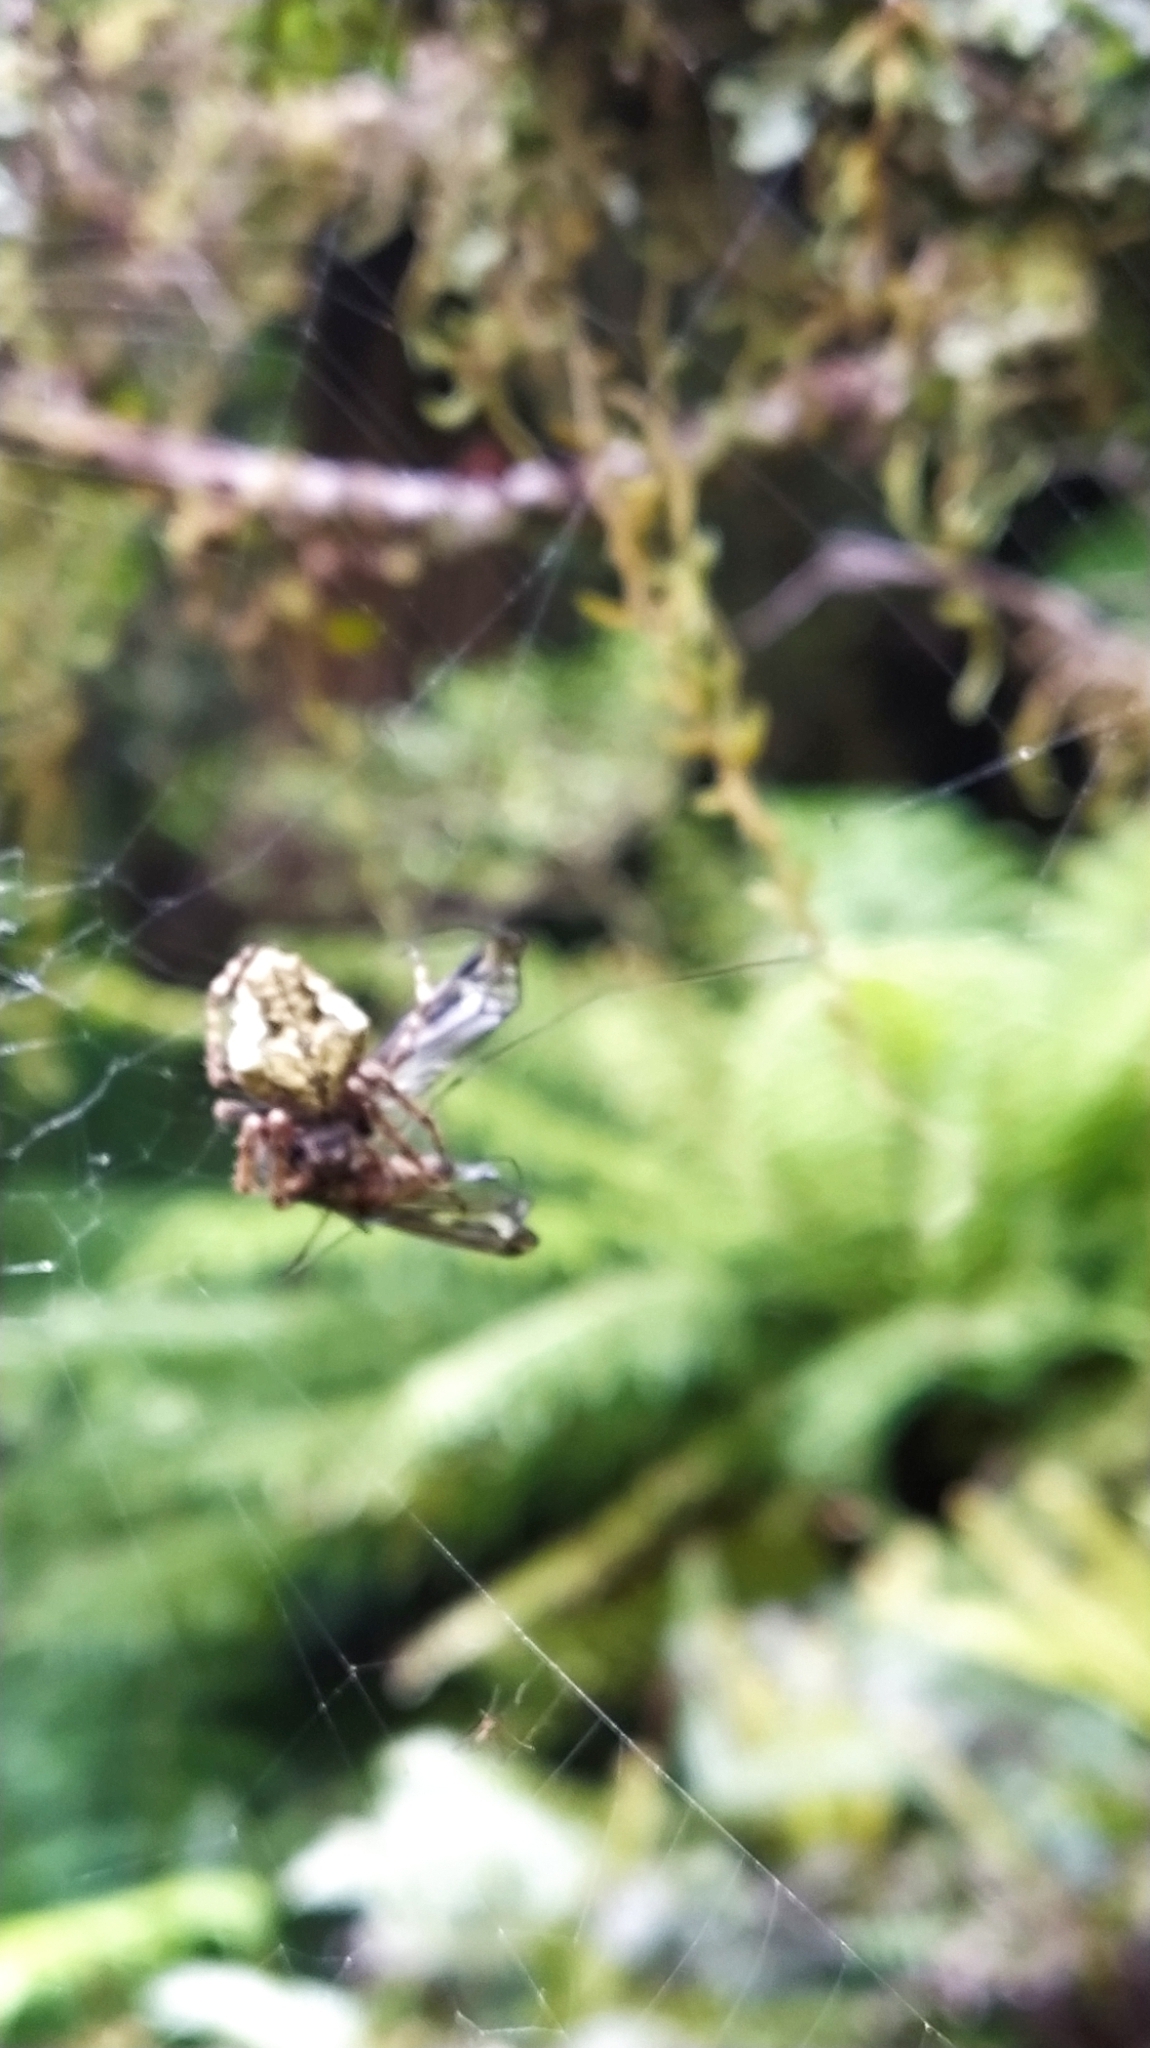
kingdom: Animalia
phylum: Arthropoda
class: Arachnida
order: Araneae
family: Araneidae
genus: Eriophora
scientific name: Eriophora pustulosa
